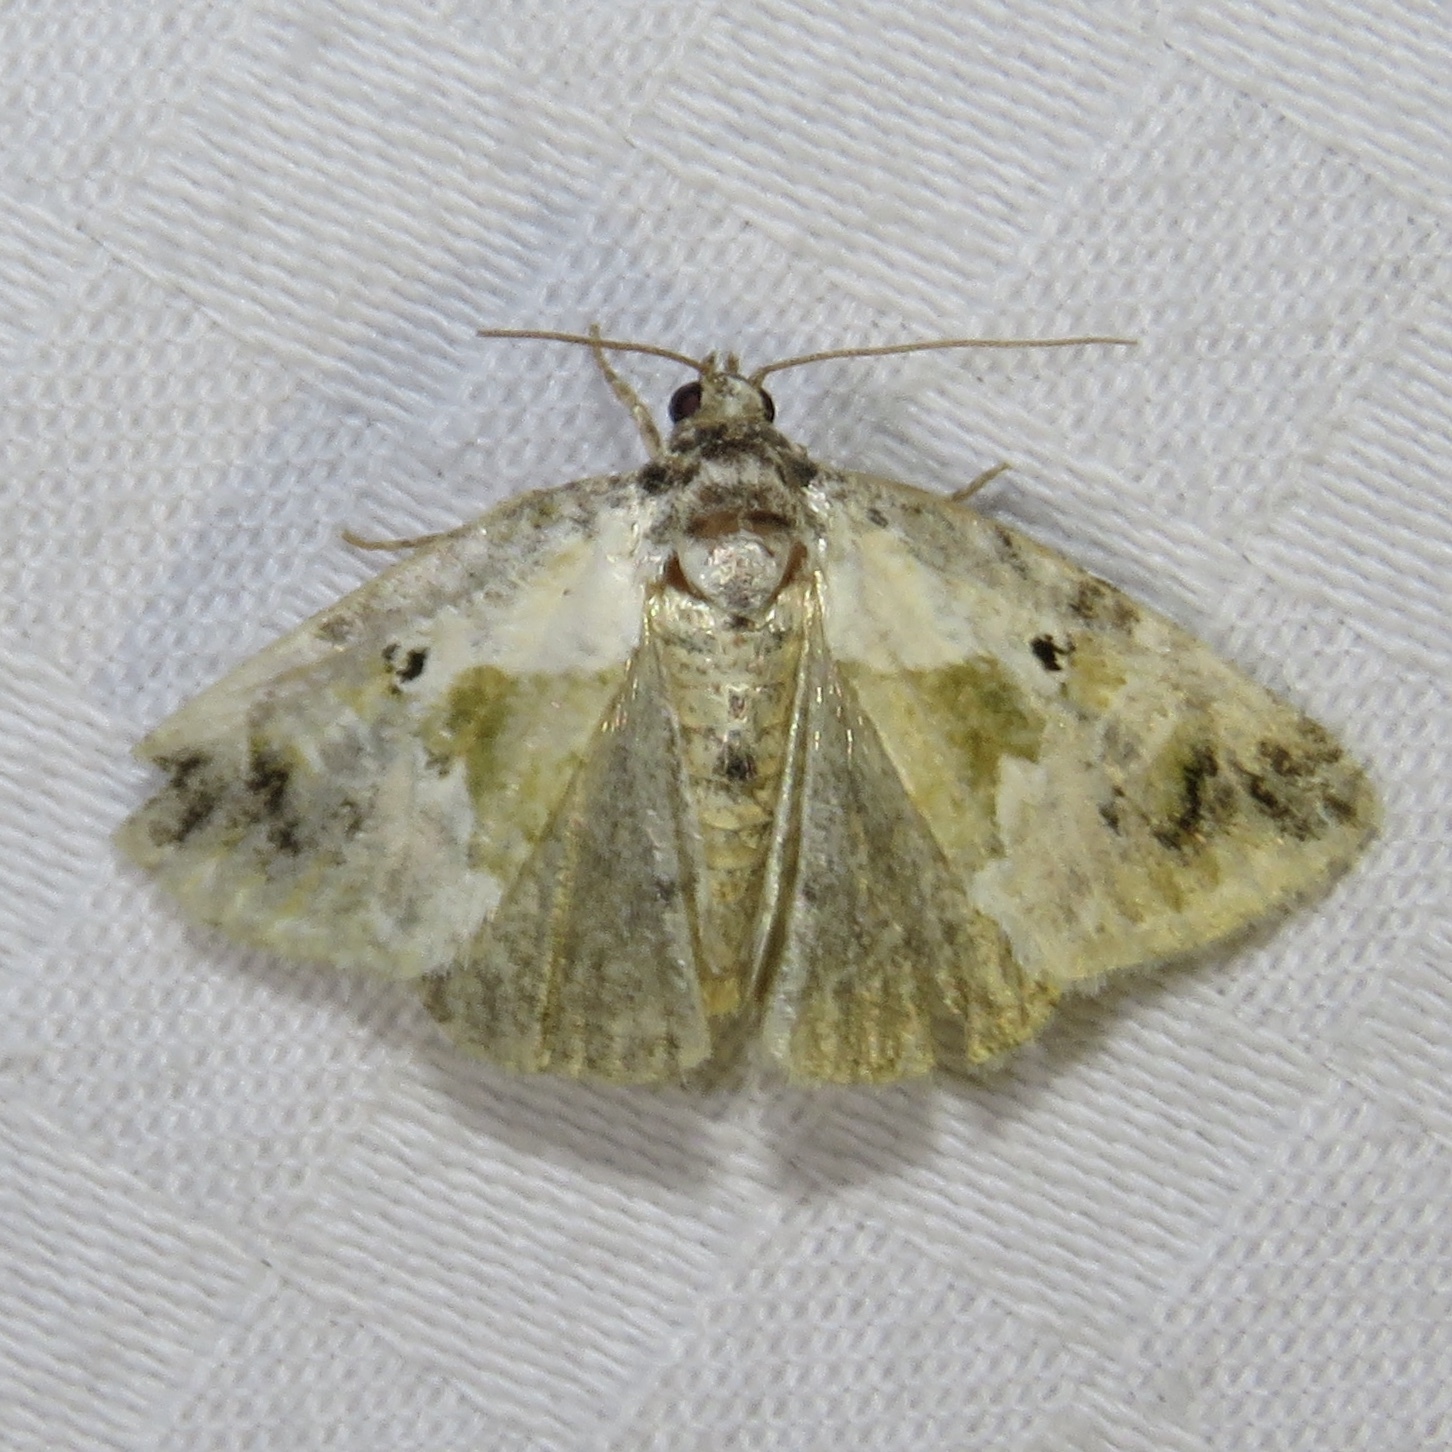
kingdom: Animalia
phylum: Arthropoda
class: Insecta
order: Lepidoptera
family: Noctuidae
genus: Maliattha
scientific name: Maliattha synochitis
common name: Black-dotted glyph
